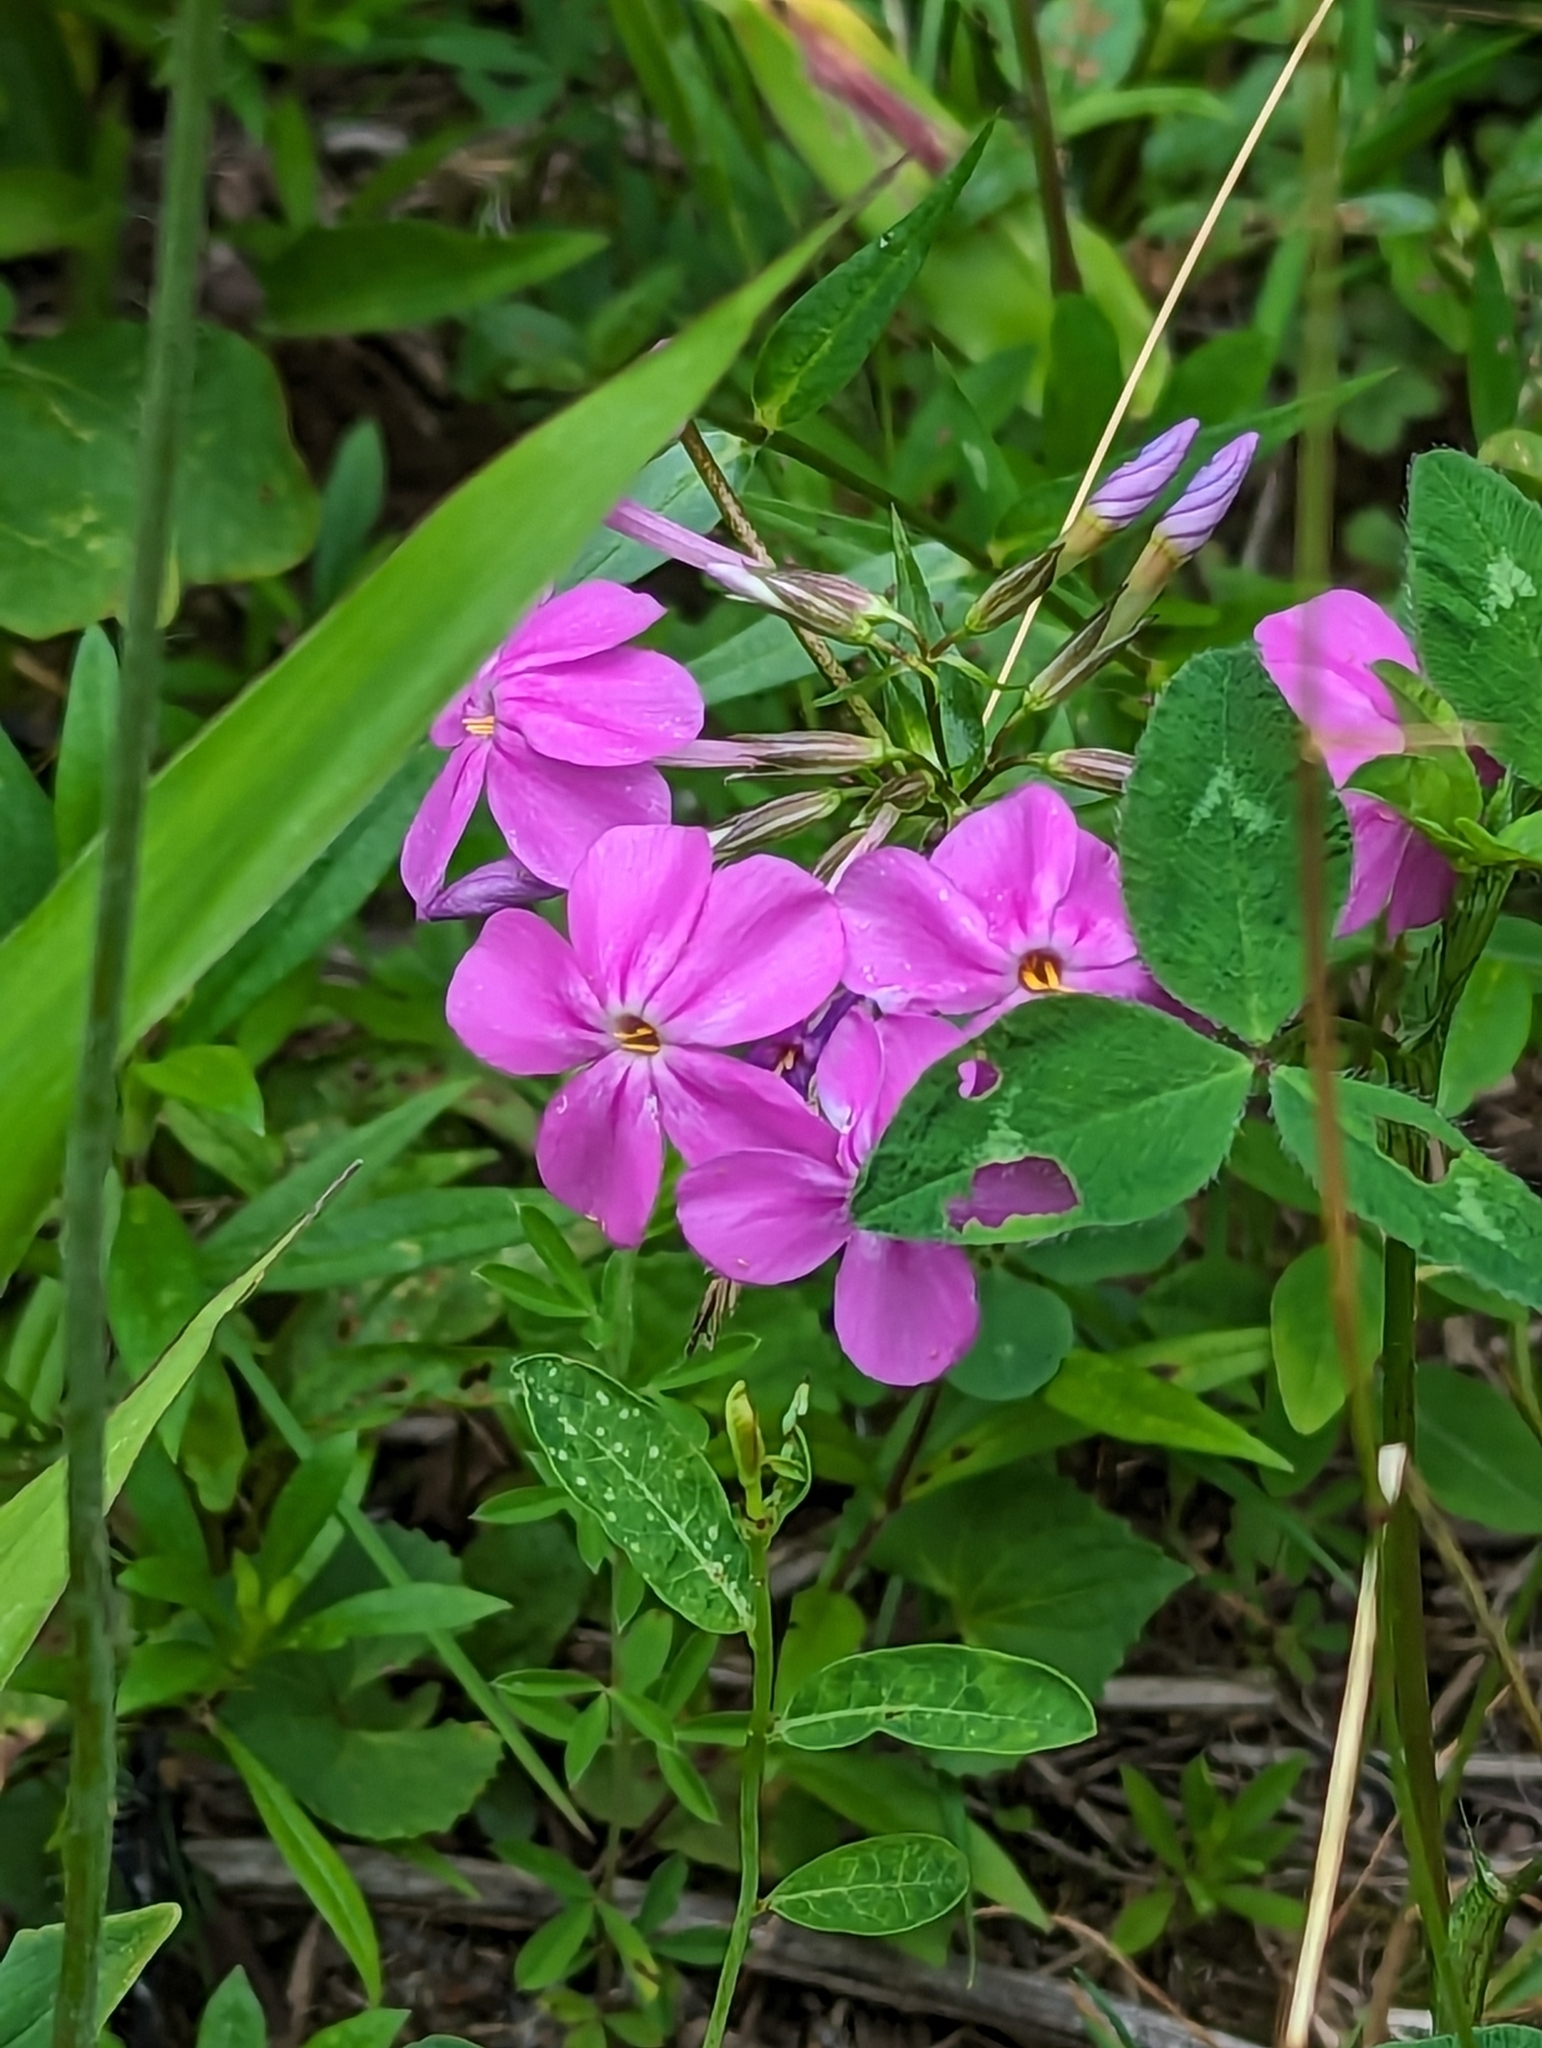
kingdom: Plantae
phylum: Tracheophyta
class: Magnoliopsida
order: Ericales
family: Polemoniaceae
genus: Phlox
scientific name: Phlox ovata
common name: Mountain phlox
